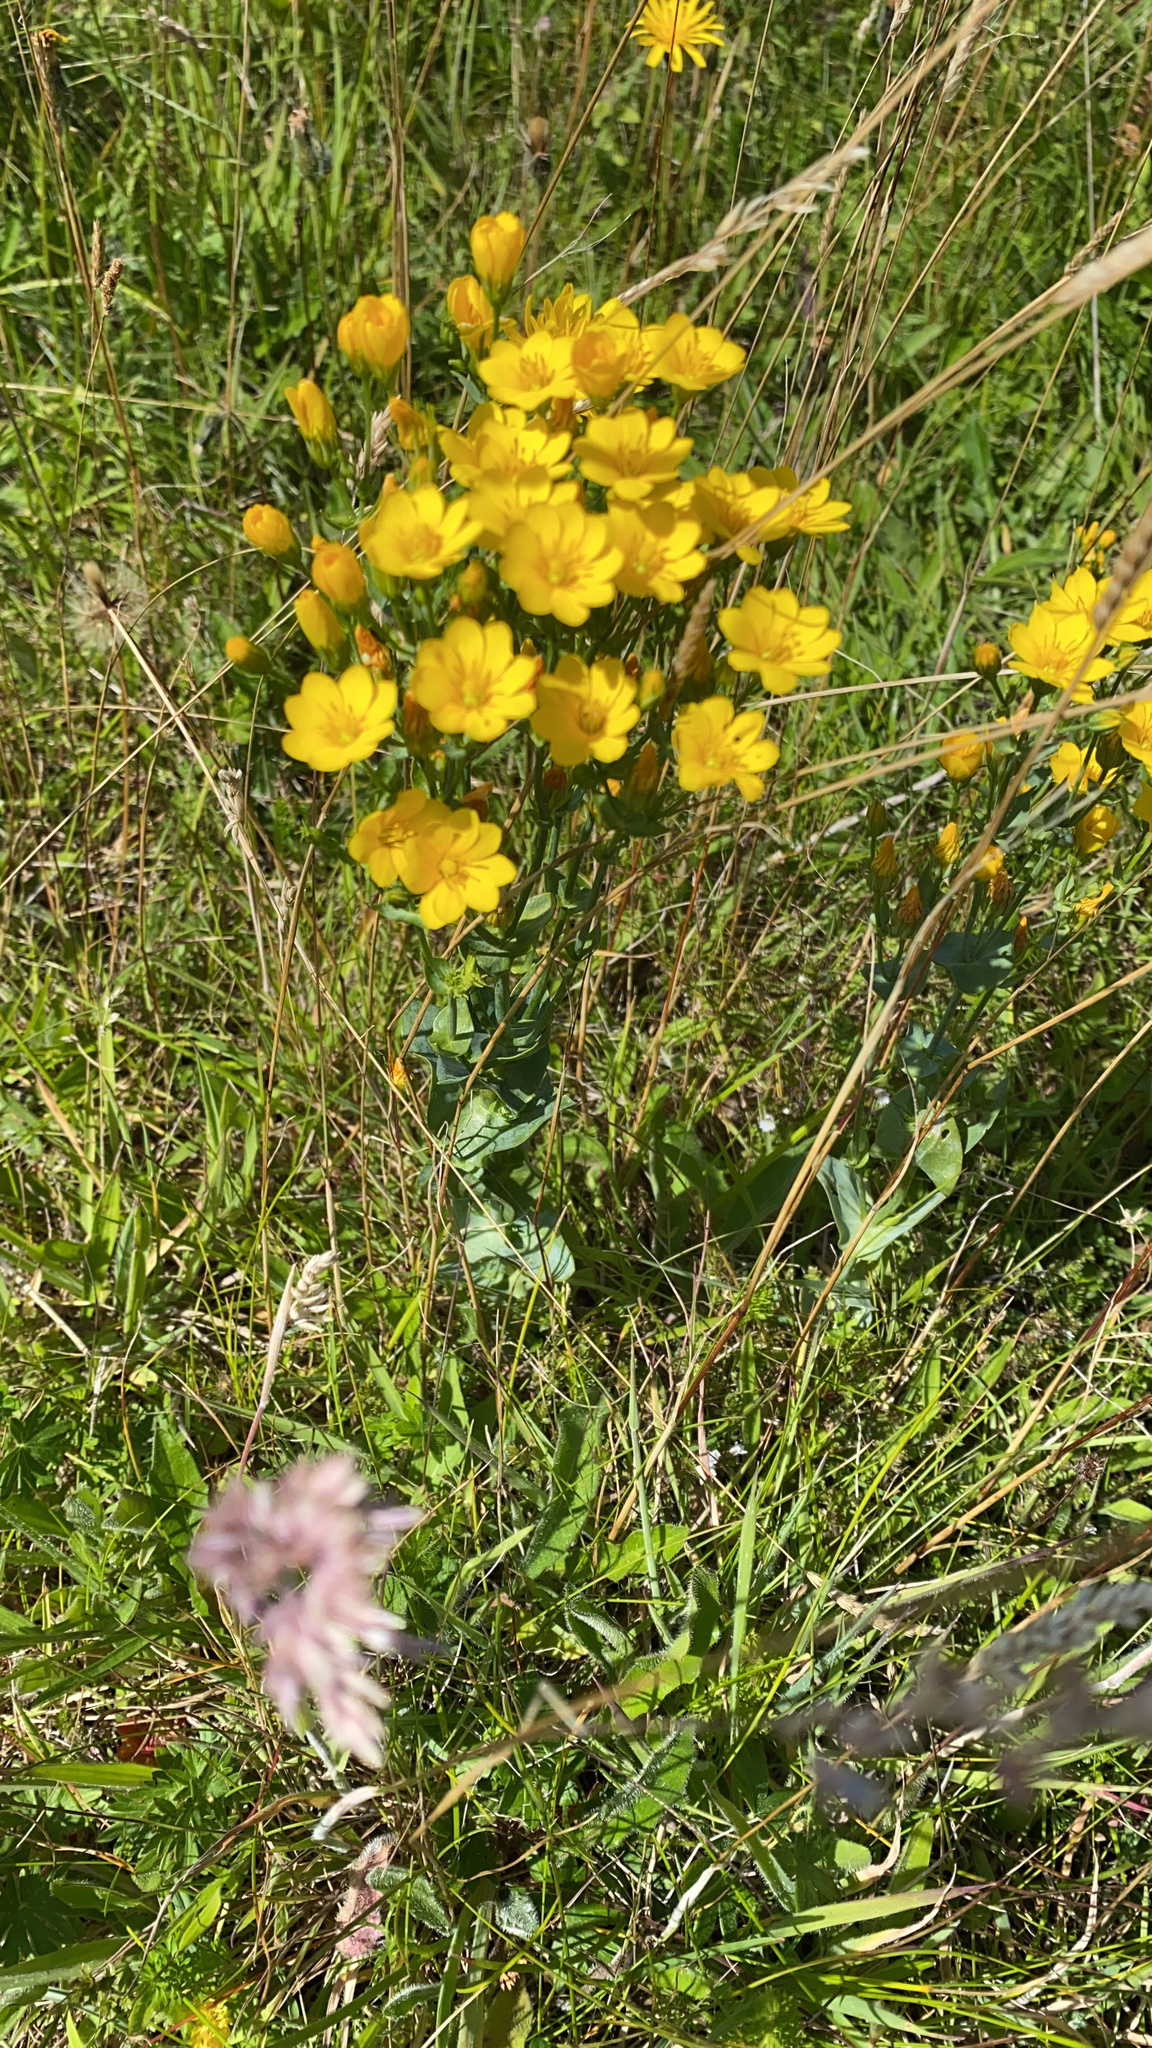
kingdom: Plantae
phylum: Tracheophyta
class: Magnoliopsida
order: Gentianales
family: Gentianaceae
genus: Blackstonia
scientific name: Blackstonia perfoliata
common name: Yellow-wort
